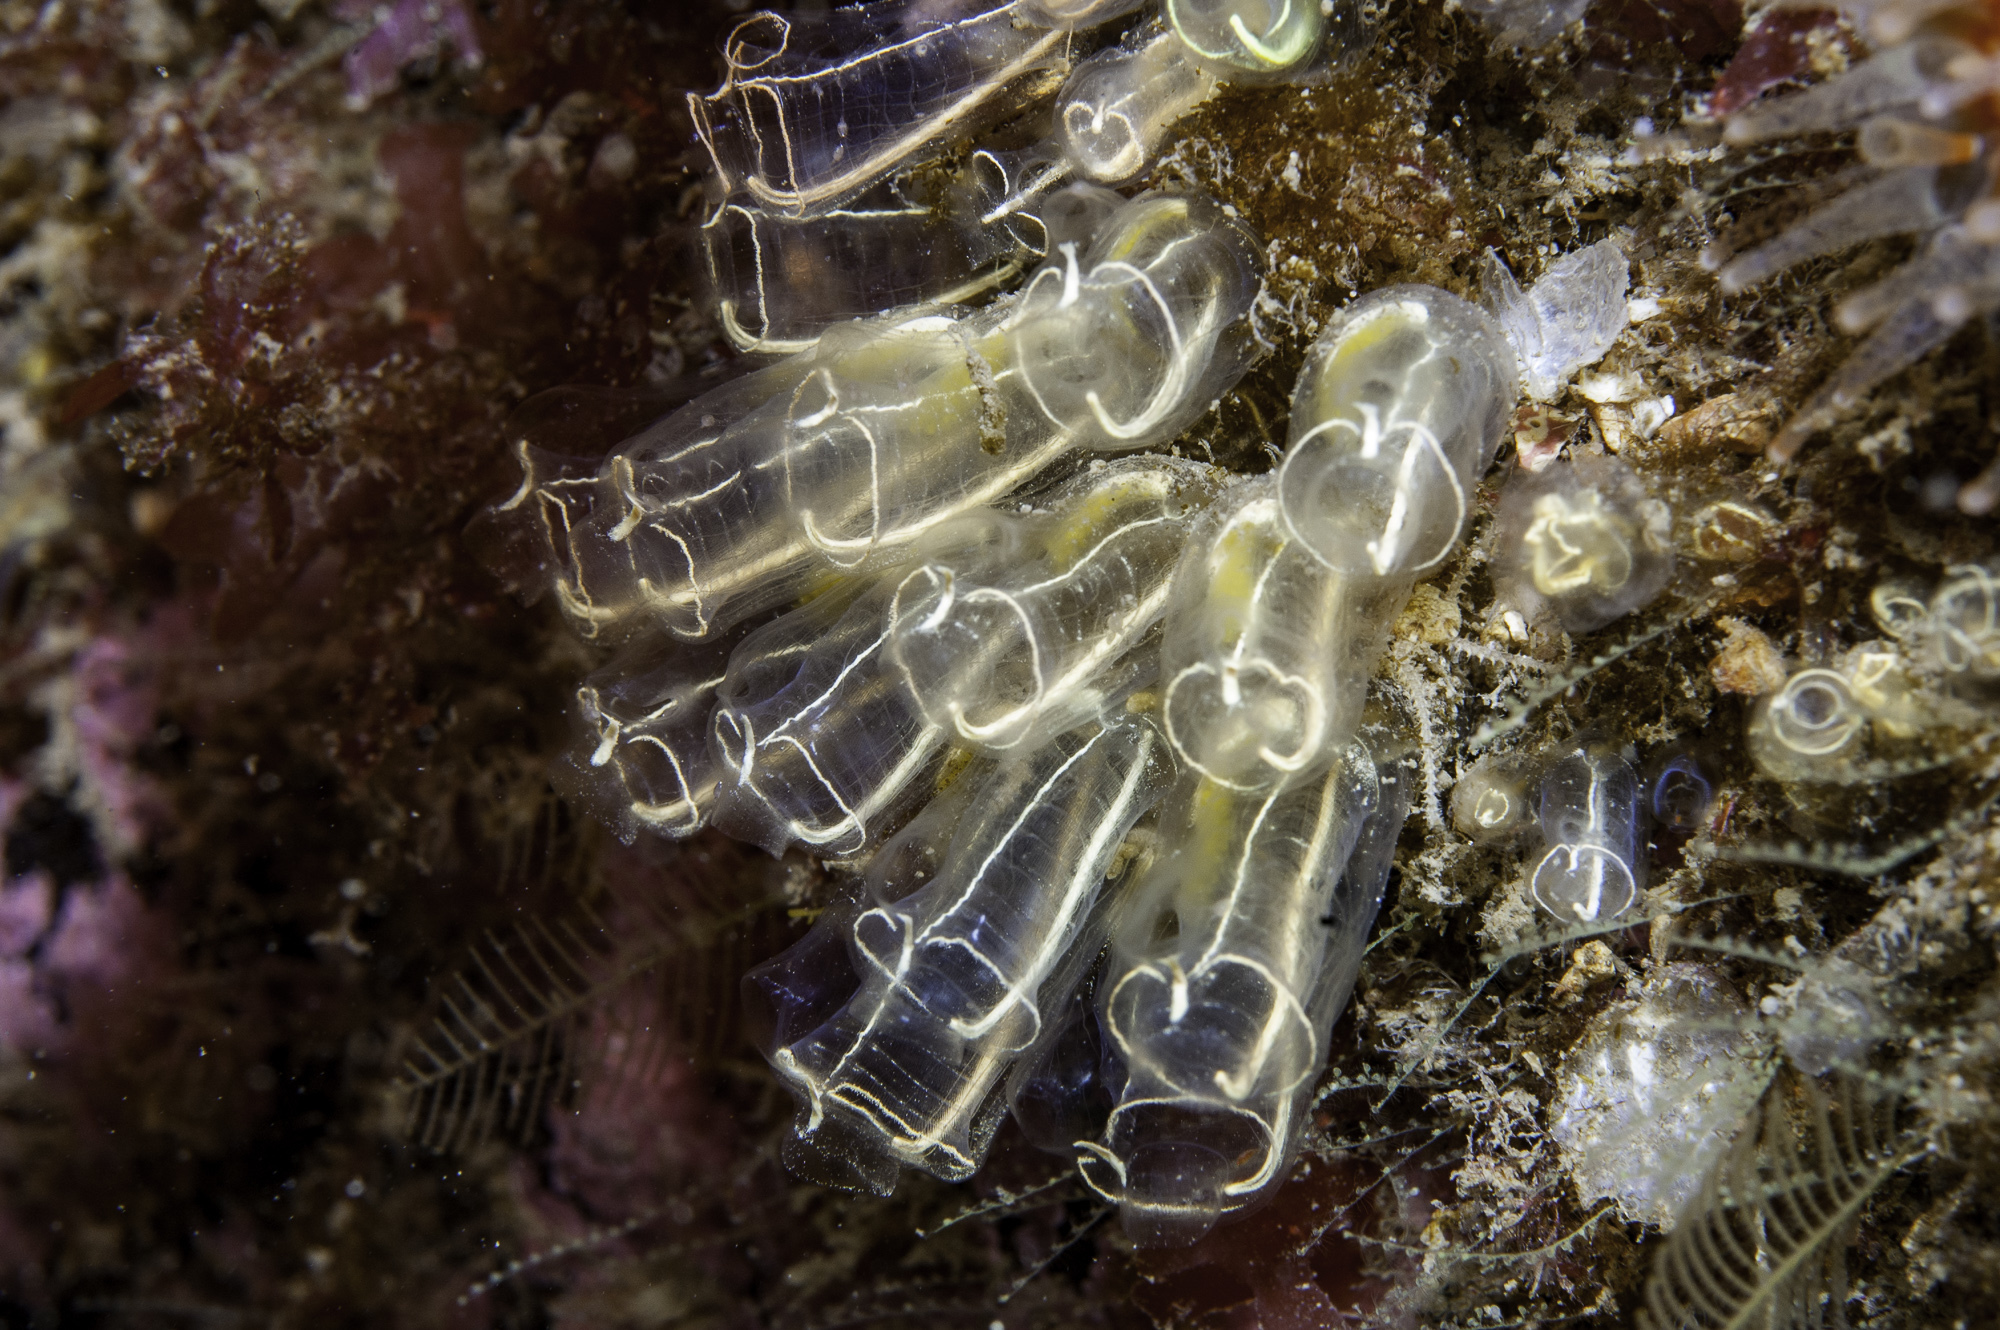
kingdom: Animalia
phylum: Chordata
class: Ascidiacea
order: Aplousobranchia
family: Clavelinidae
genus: Clavelina
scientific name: Clavelina lepadiformis
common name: Light bulb tunicate
